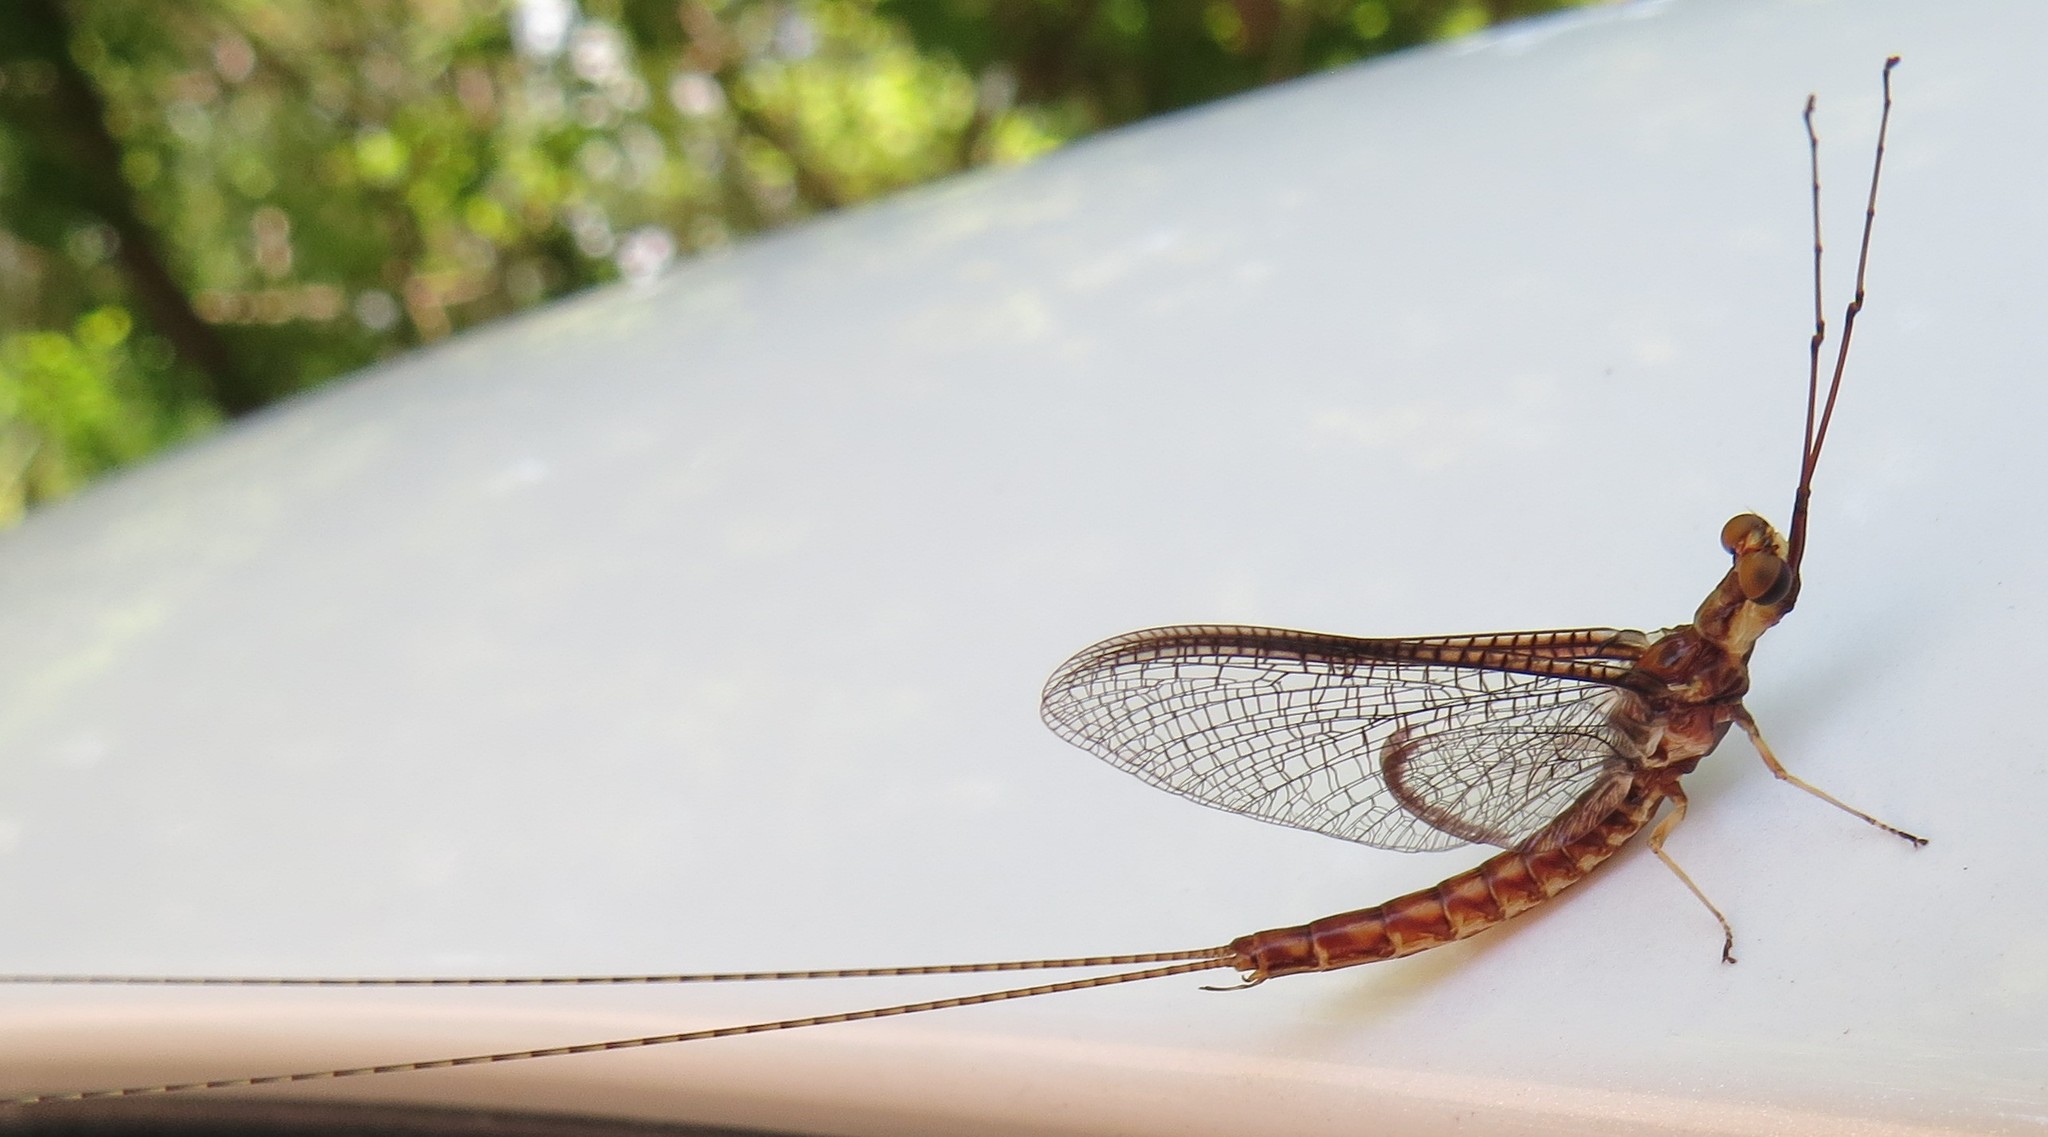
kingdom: Animalia
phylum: Arthropoda
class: Insecta
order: Ephemeroptera
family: Ephemeridae
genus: Hexagenia
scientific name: Hexagenia bilineata
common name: Emergent mayfly
